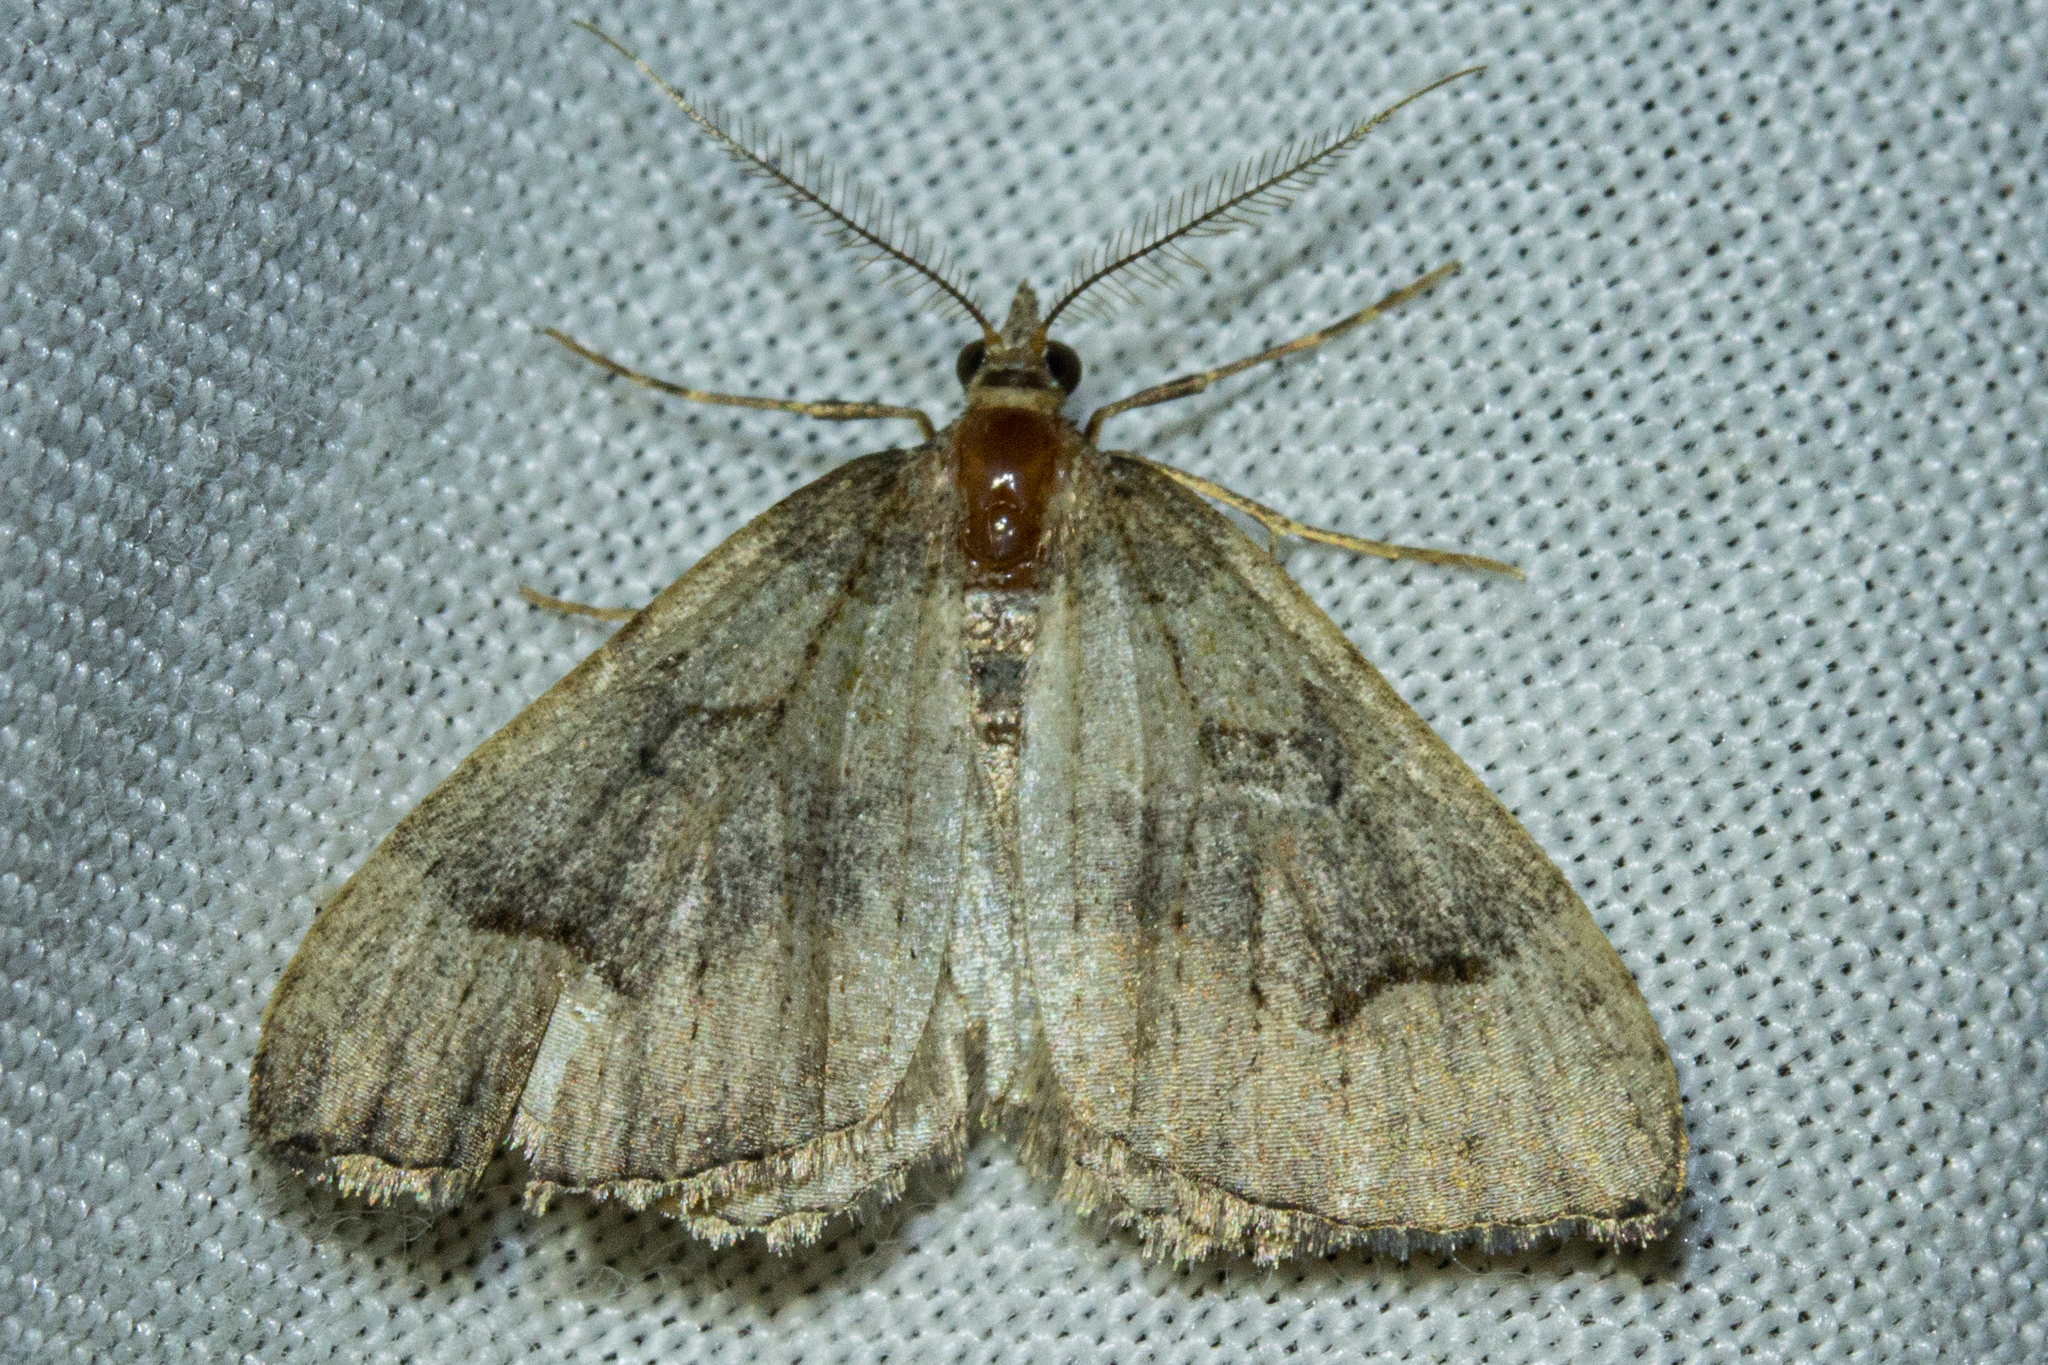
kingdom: Animalia
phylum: Arthropoda
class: Insecta
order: Lepidoptera
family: Geometridae
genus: Epyaxa
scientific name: Epyaxa rosearia
